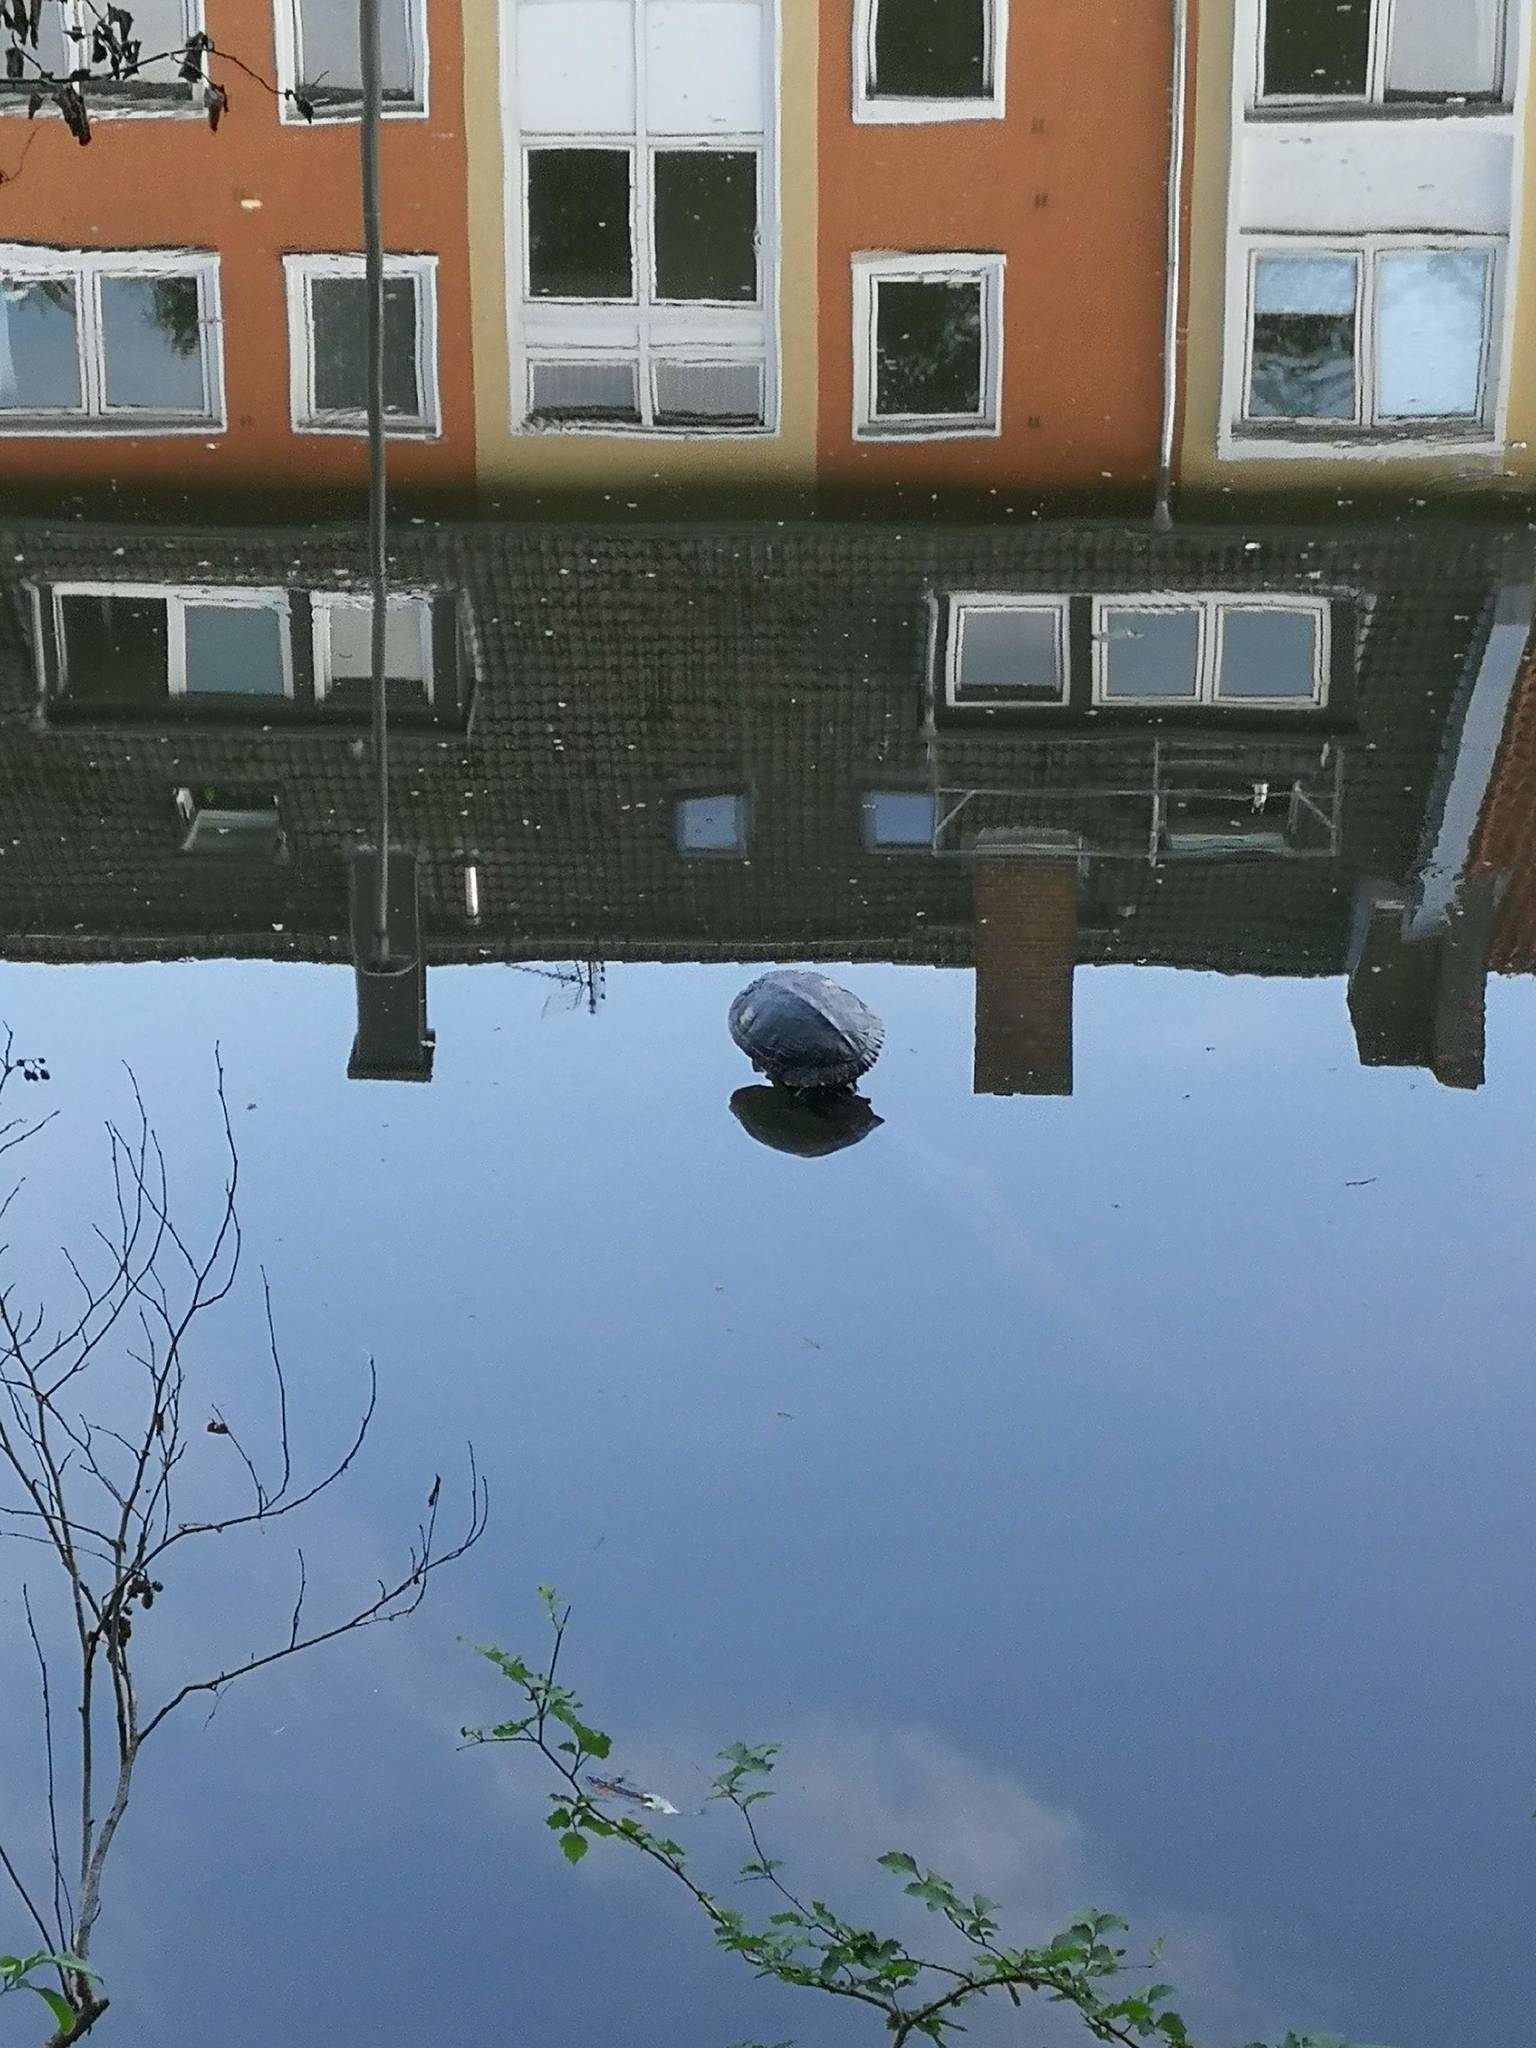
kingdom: Animalia
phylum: Chordata
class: Testudines
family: Emydidae
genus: Trachemys
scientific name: Trachemys scripta
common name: Slider
